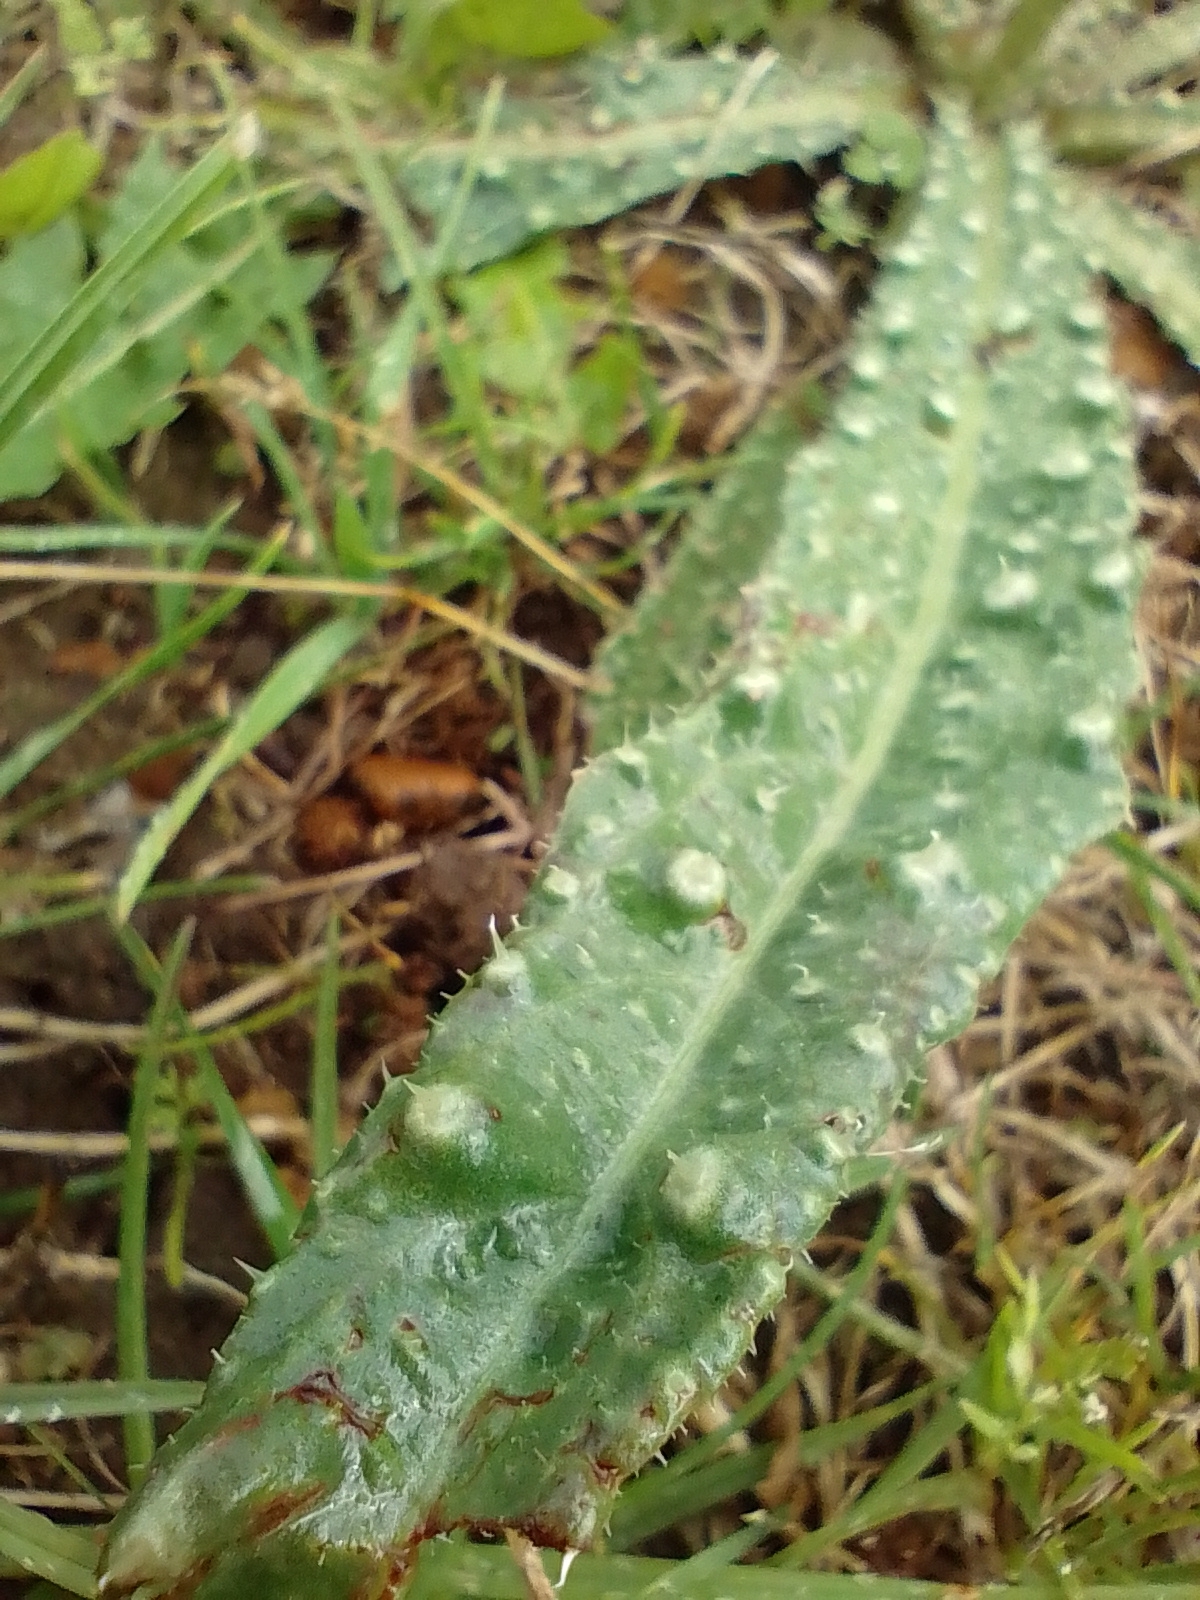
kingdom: Plantae
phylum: Tracheophyta
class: Magnoliopsida
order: Asterales
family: Asteraceae
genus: Helminthotheca
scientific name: Helminthotheca echioides
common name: Ox-tongue
